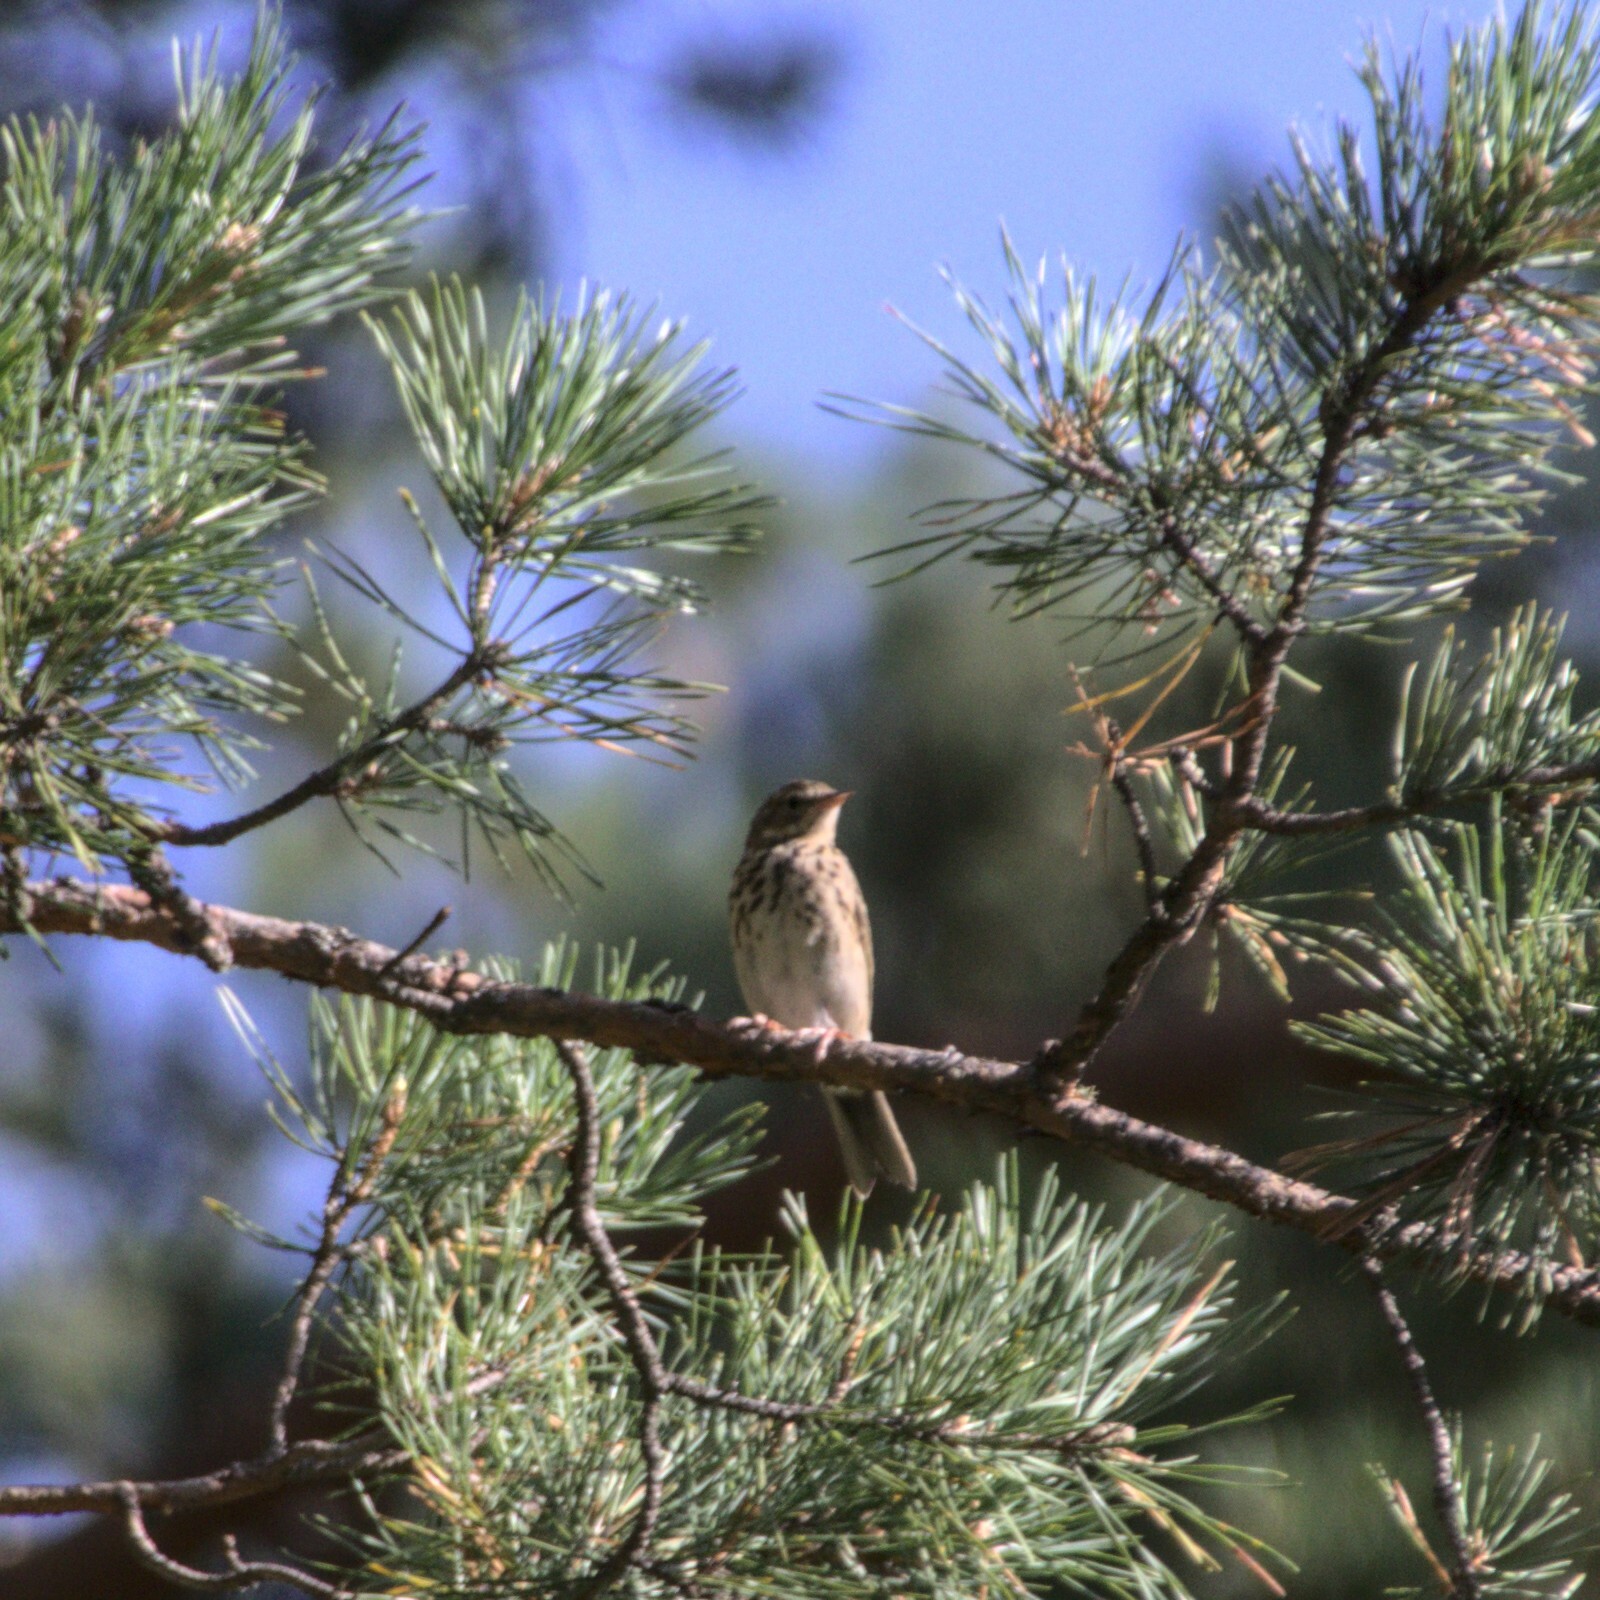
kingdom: Animalia
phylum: Chordata
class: Aves
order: Passeriformes
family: Motacillidae
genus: Anthus
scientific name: Anthus trivialis
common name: Tree pipit
